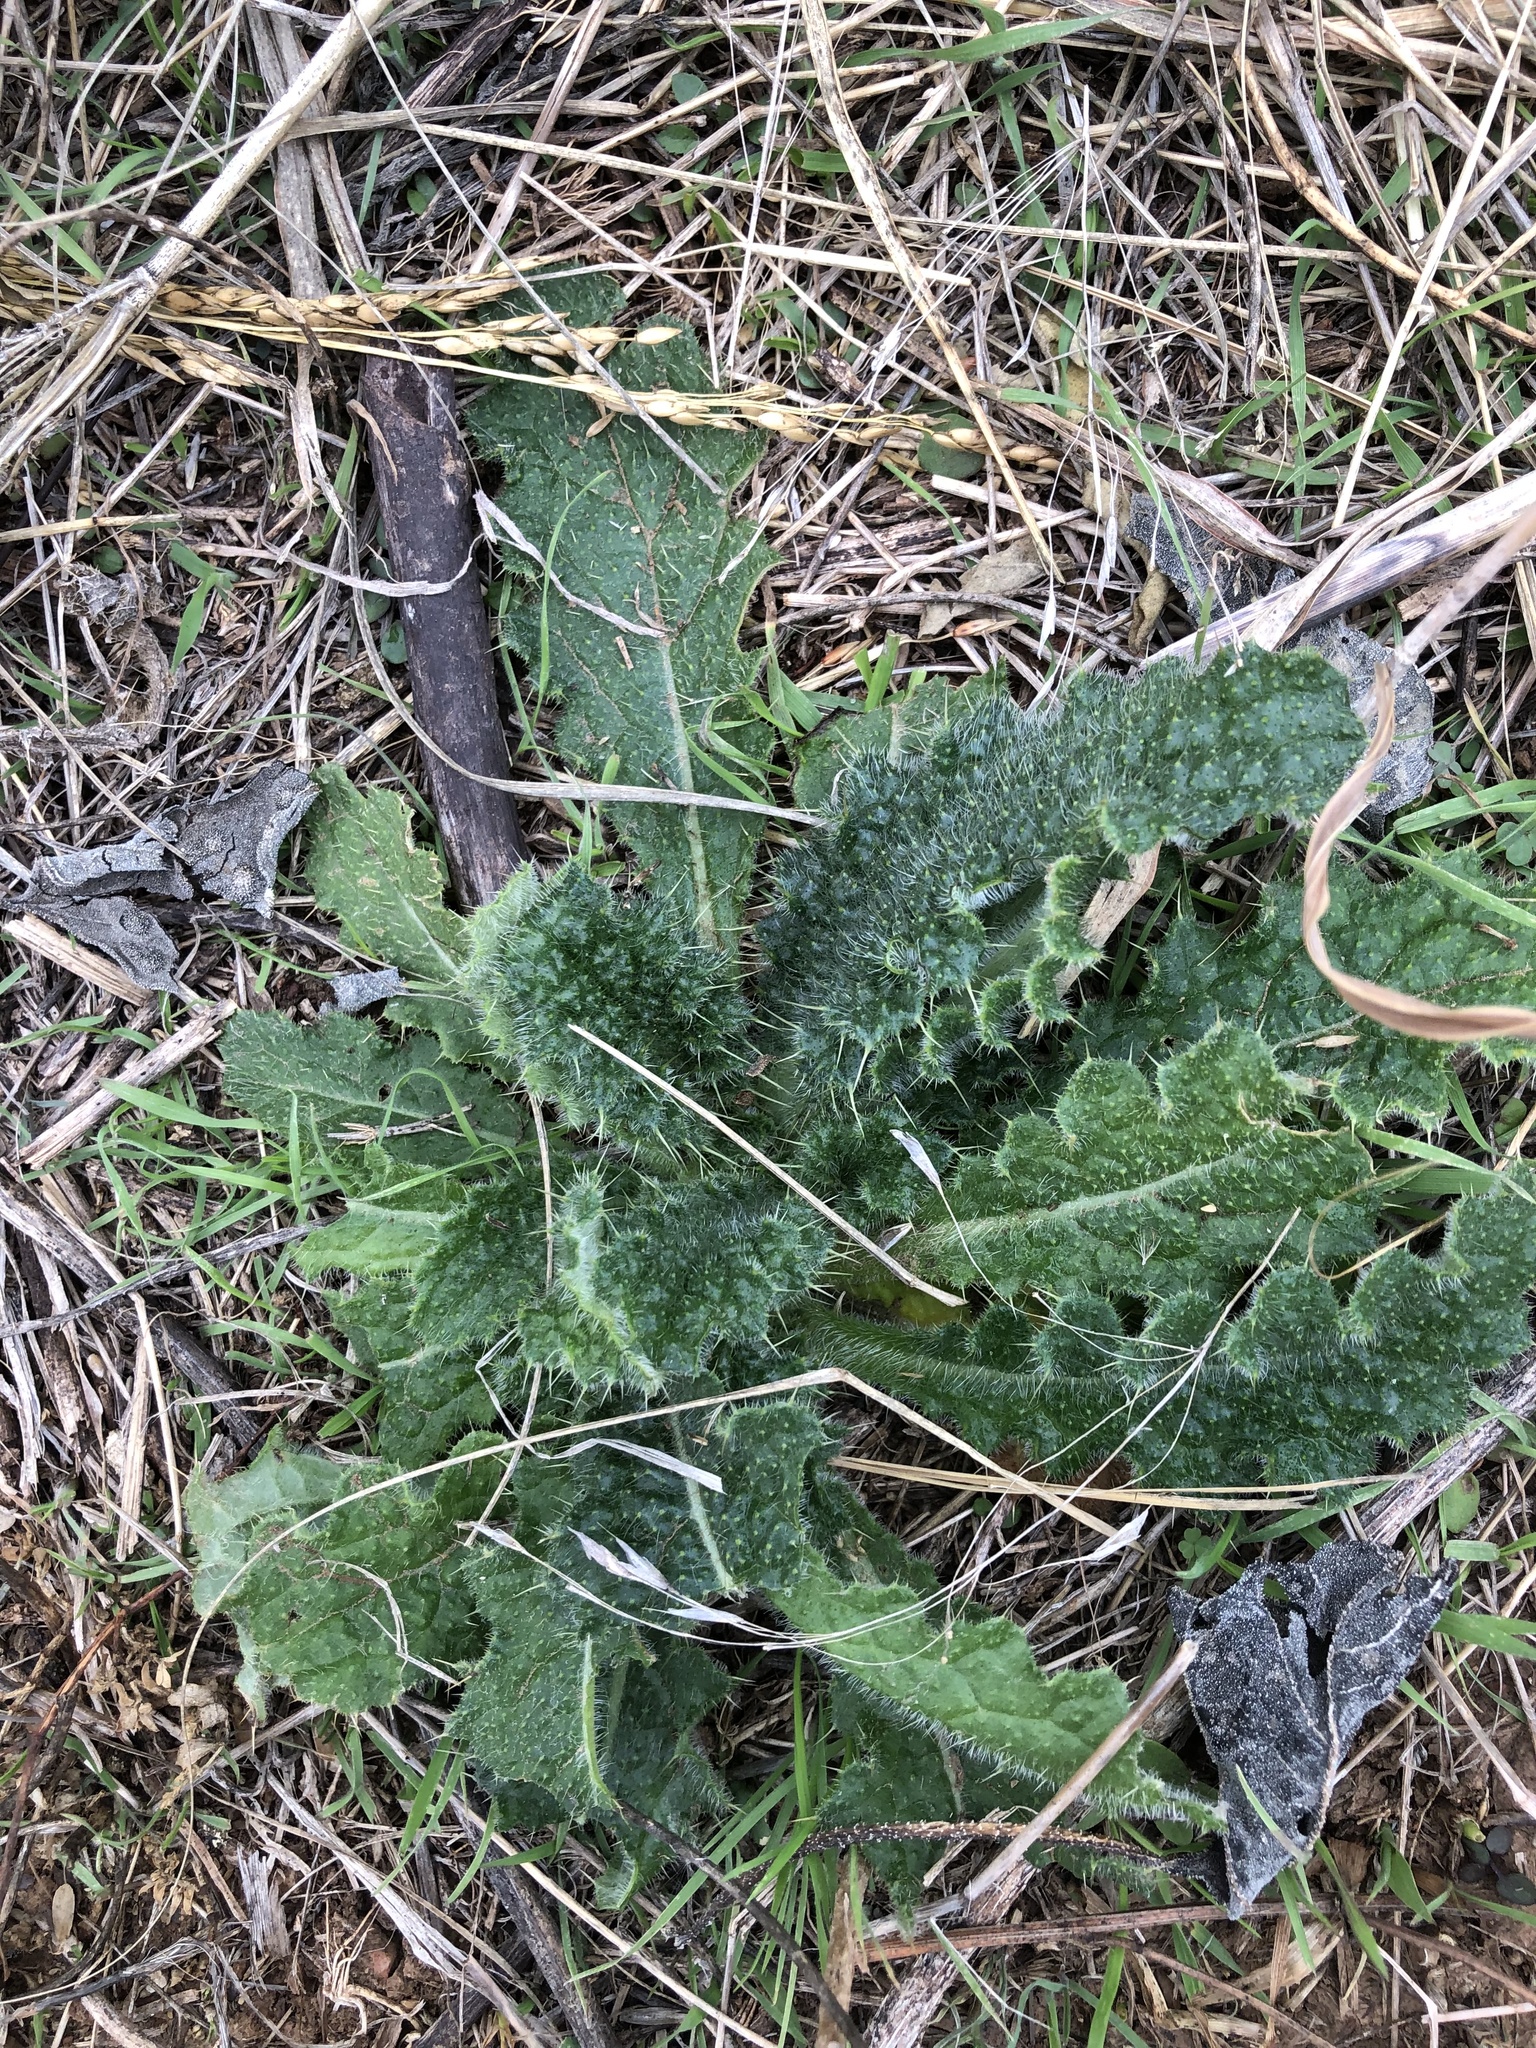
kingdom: Plantae
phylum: Tracheophyta
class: Magnoliopsida
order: Asterales
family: Asteraceae
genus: Cirsium
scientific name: Cirsium vulgare
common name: Bull thistle
